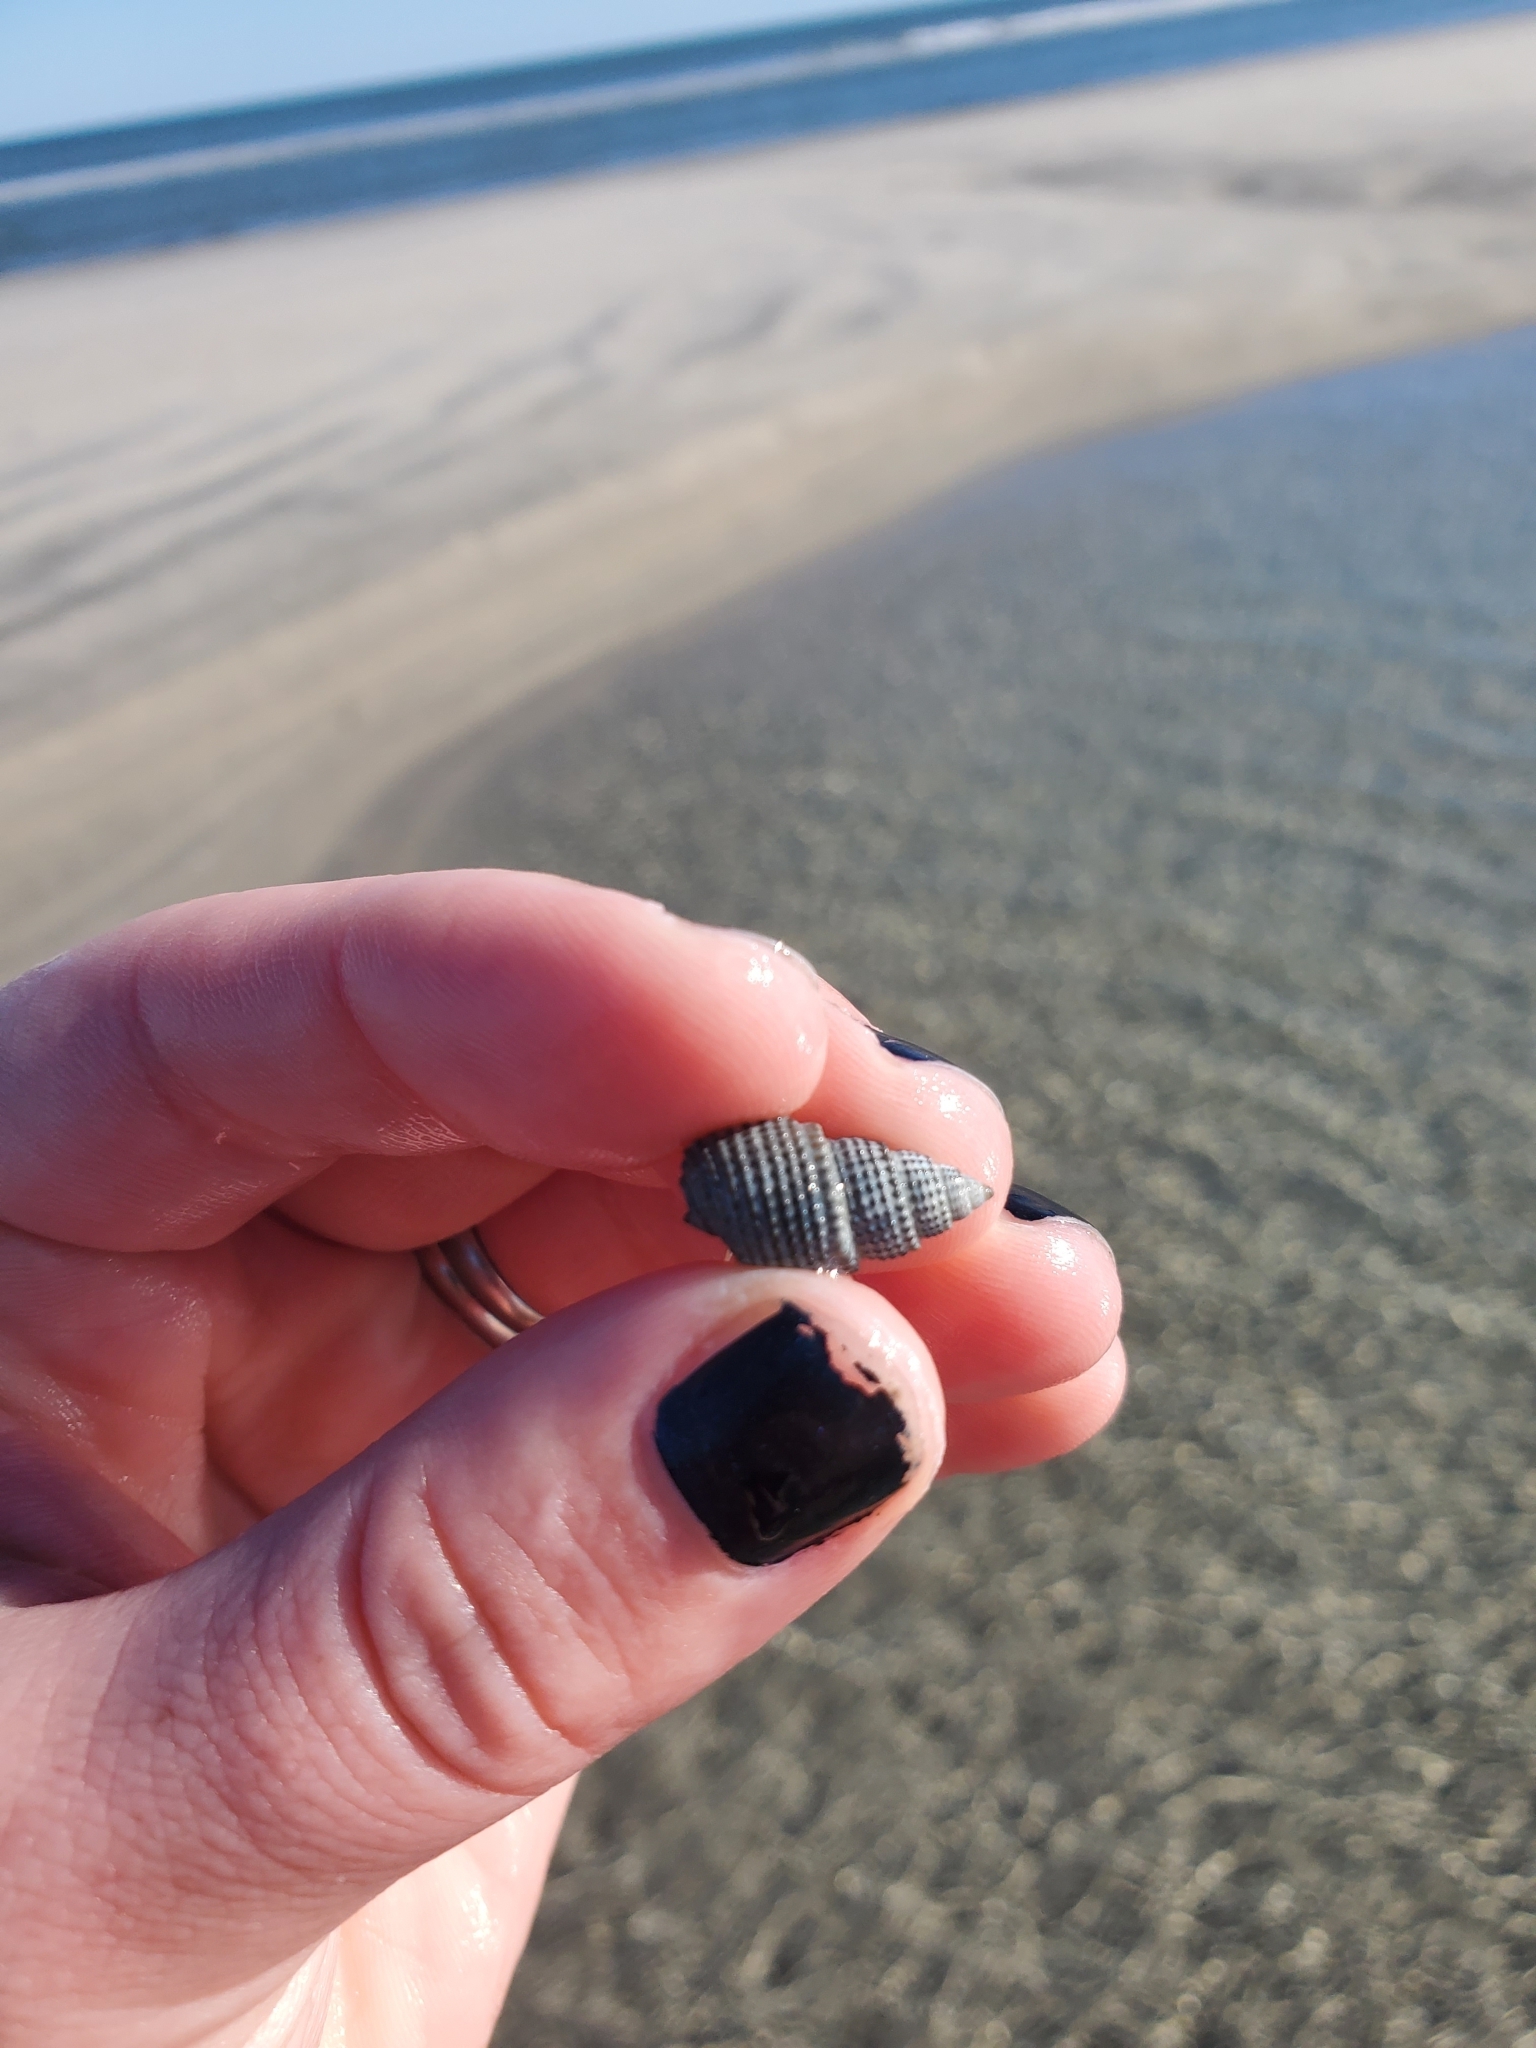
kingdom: Animalia
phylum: Arthropoda
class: Malacostraca
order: Decapoda
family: Paguridae
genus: Pagurus
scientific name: Pagurus longicarpus
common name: Long-armed hermit crab
